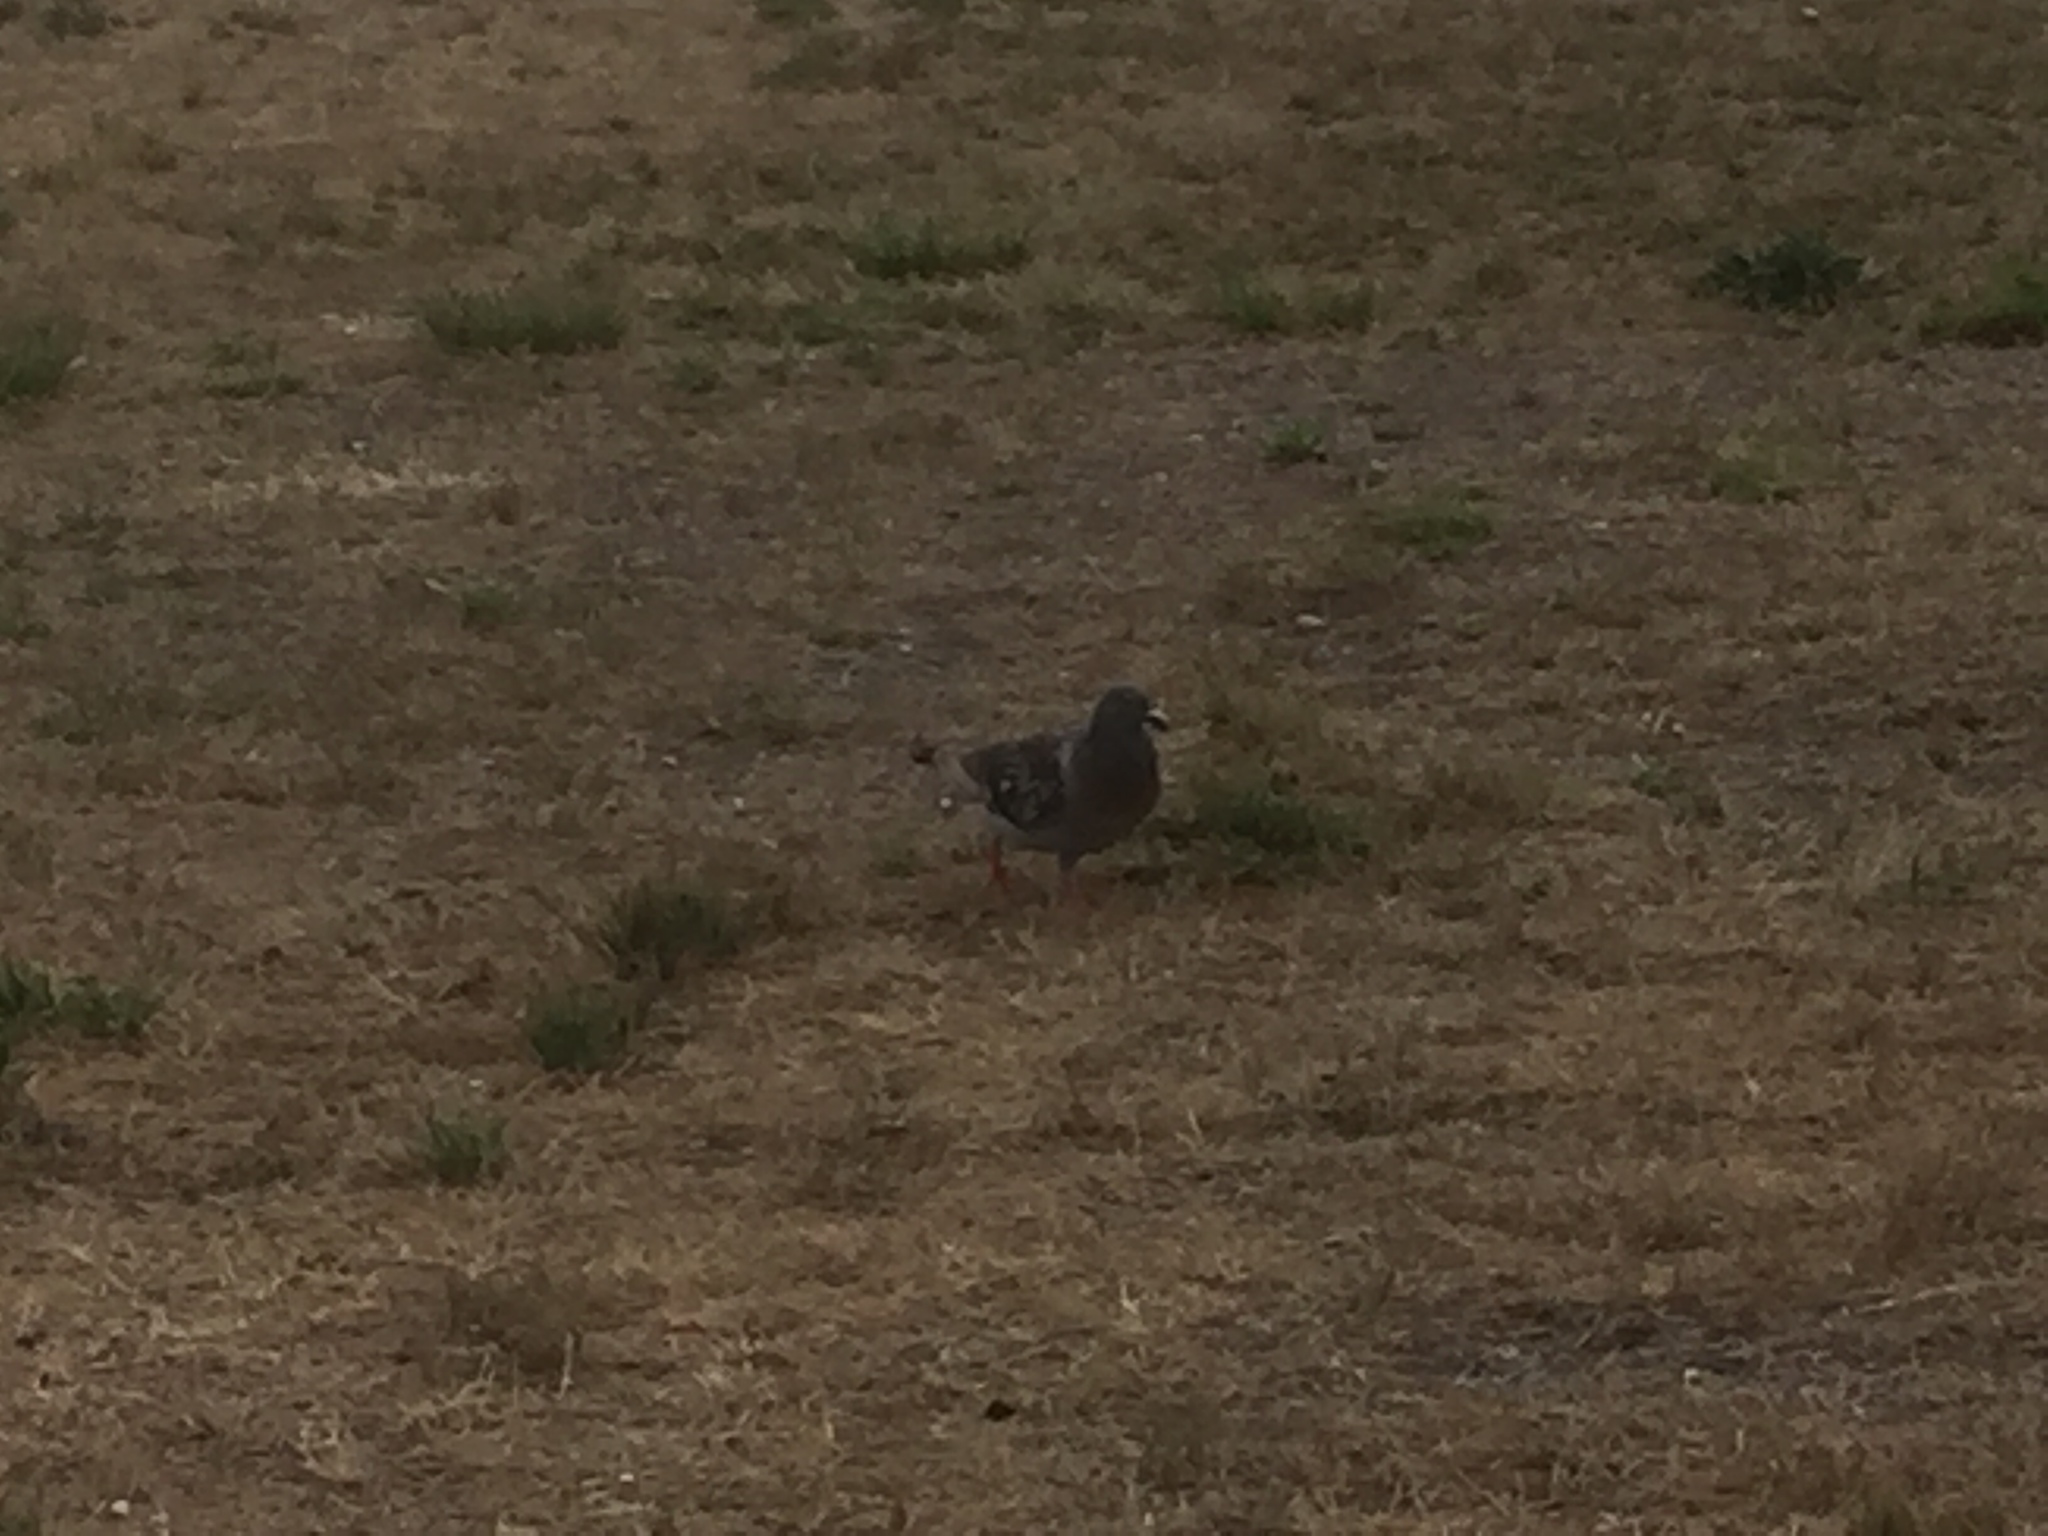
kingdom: Animalia
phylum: Chordata
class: Aves
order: Columbiformes
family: Columbidae
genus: Columba
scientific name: Columba livia
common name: Rock pigeon
